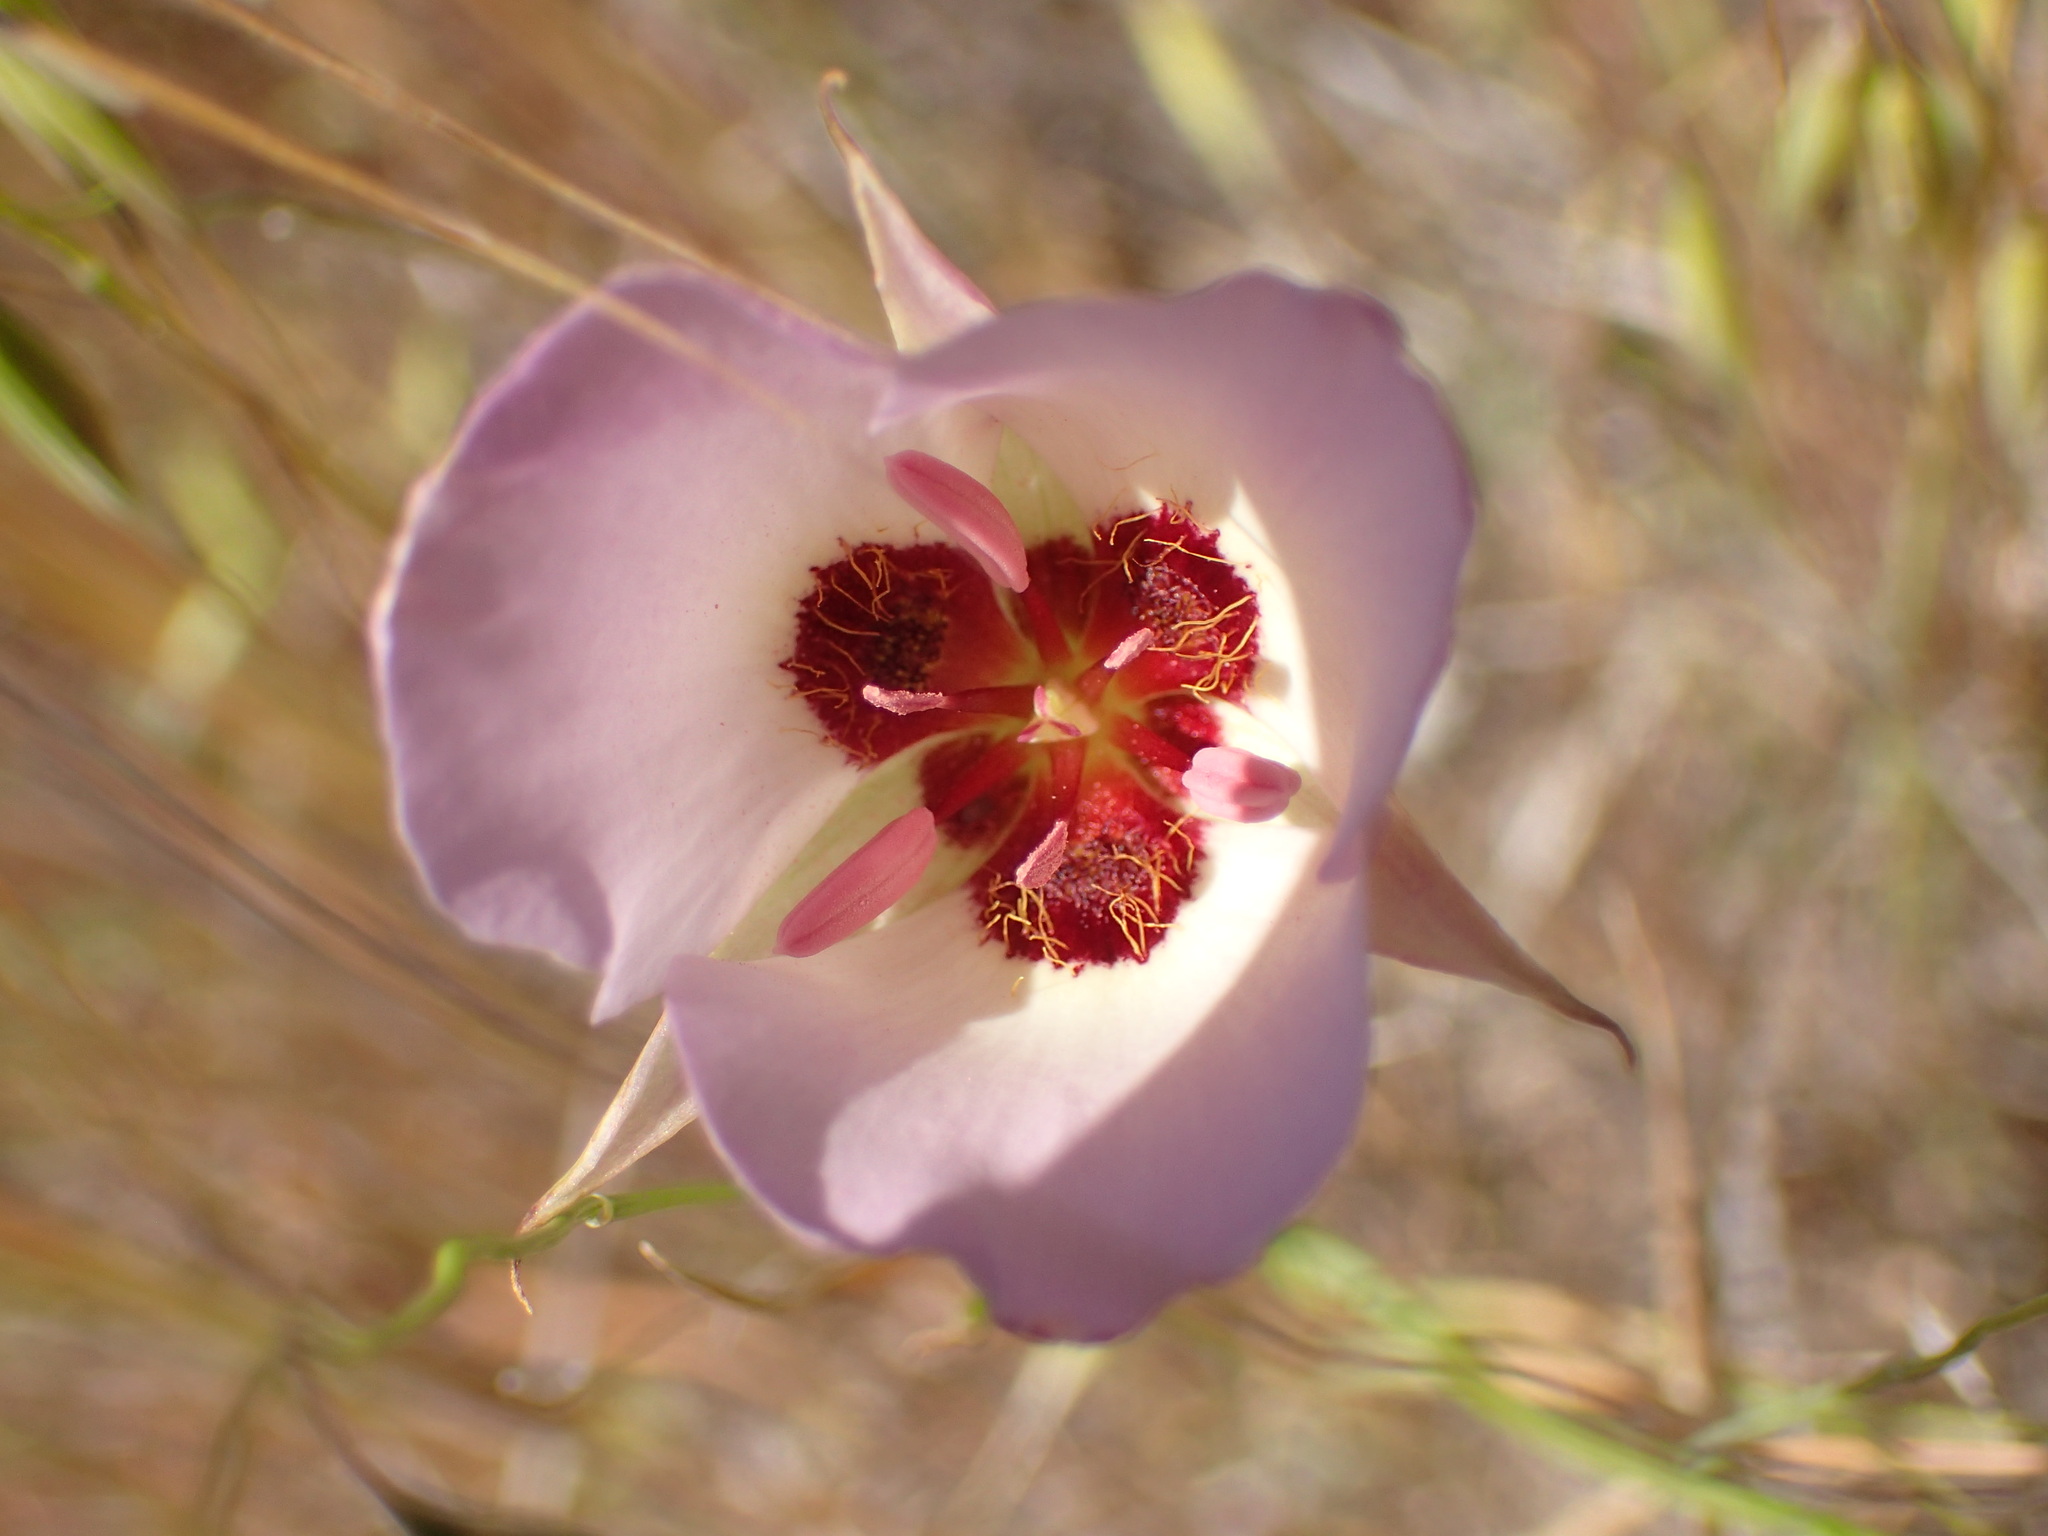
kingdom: Plantae
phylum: Tracheophyta
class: Liliopsida
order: Liliales
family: Liliaceae
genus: Calochortus
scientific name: Calochortus catalinae
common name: Catalina mariposa-lily
